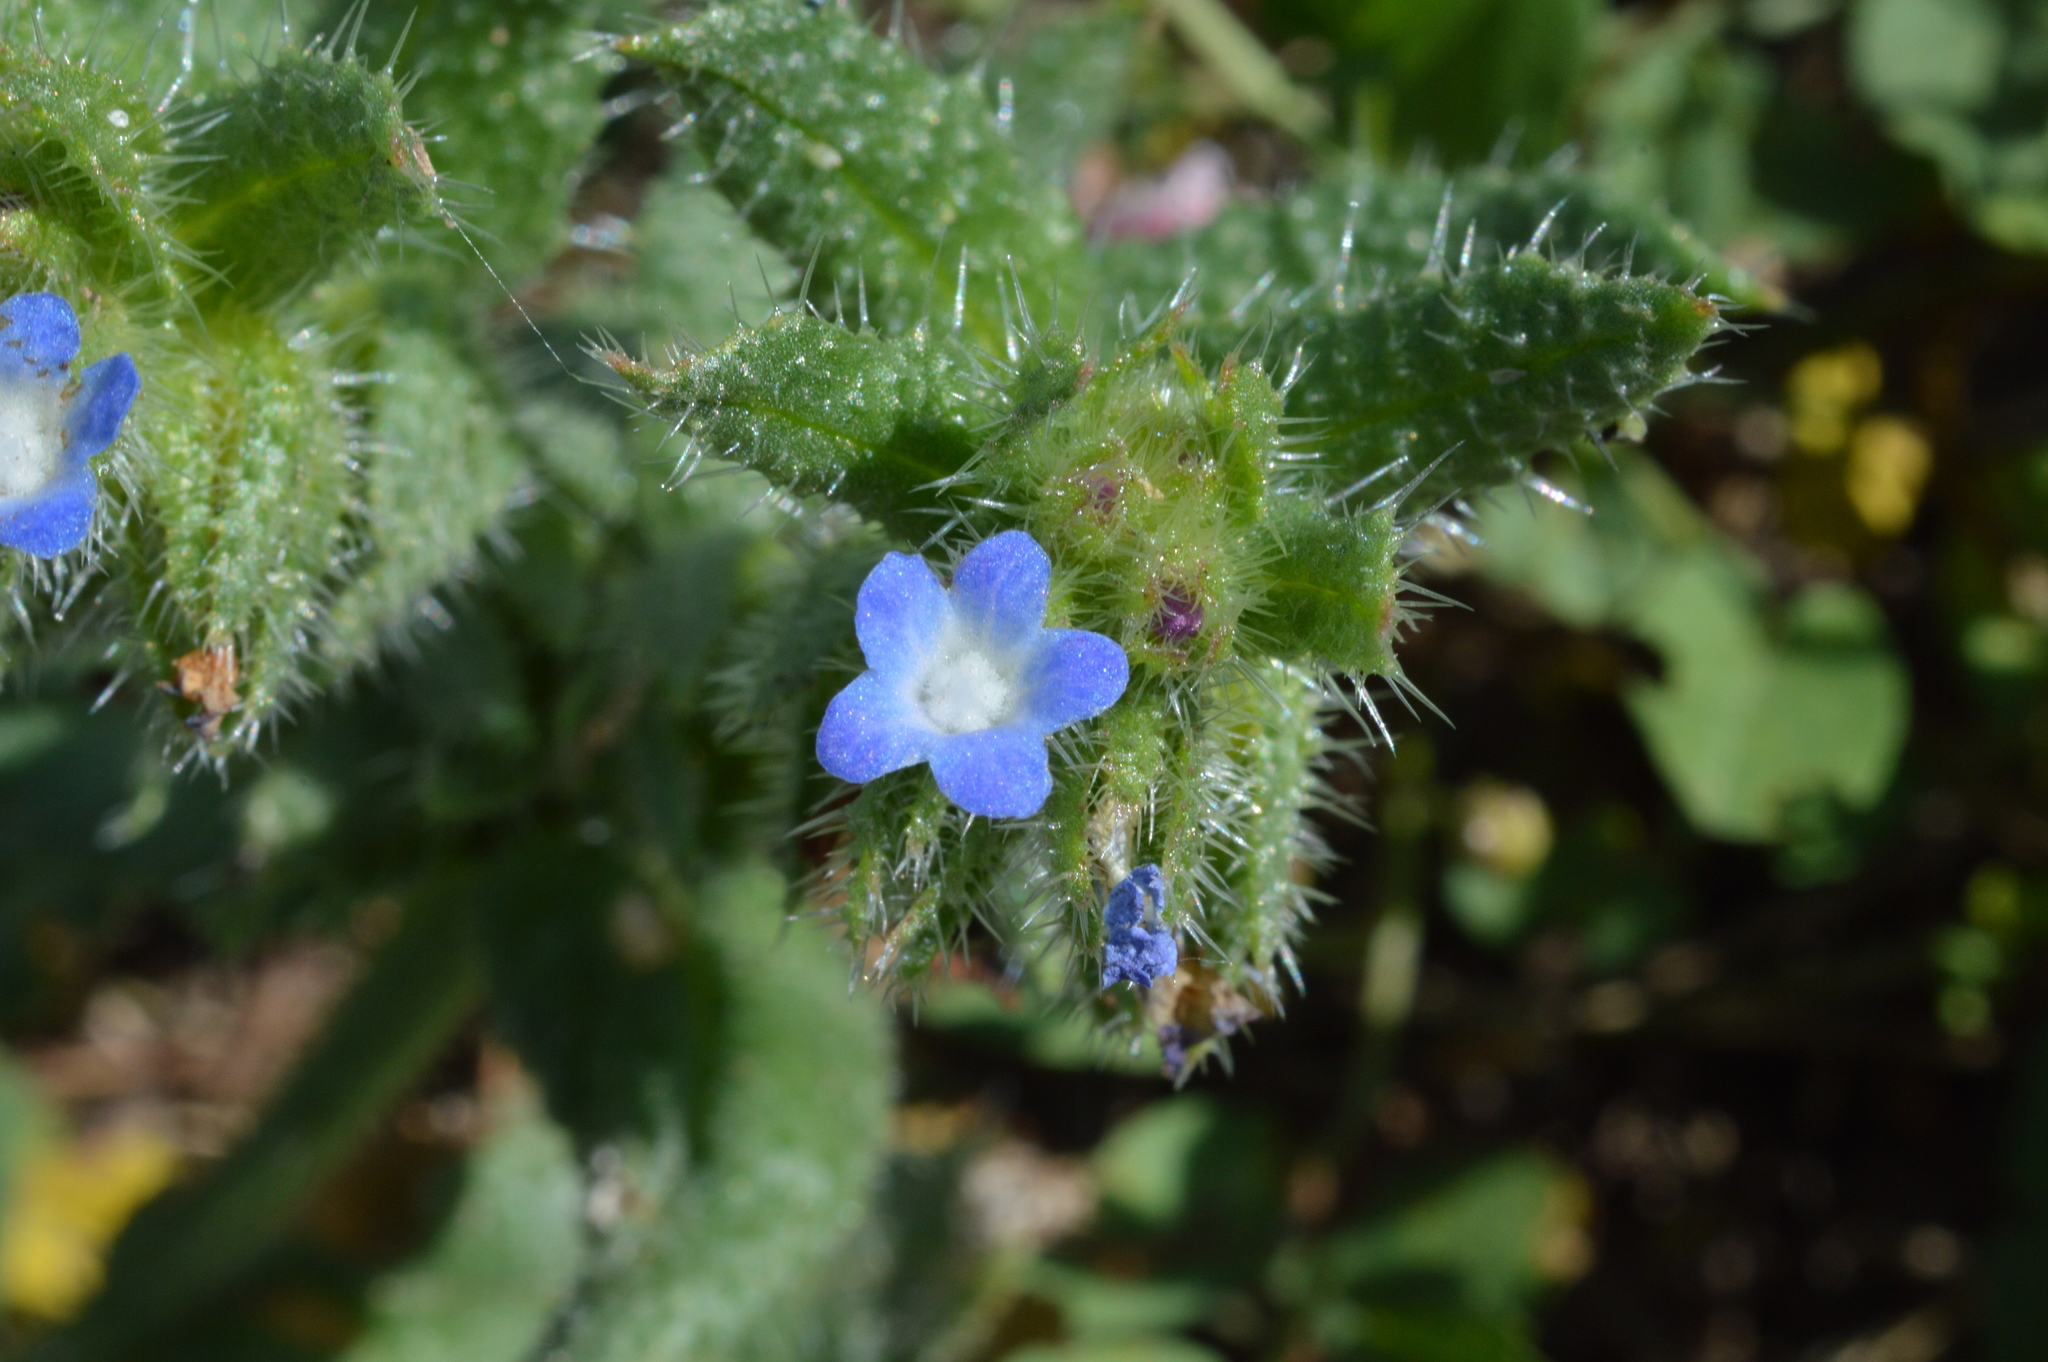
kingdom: Plantae
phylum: Tracheophyta
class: Magnoliopsida
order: Boraginales
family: Boraginaceae
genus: Lycopsis
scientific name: Lycopsis arvensis
